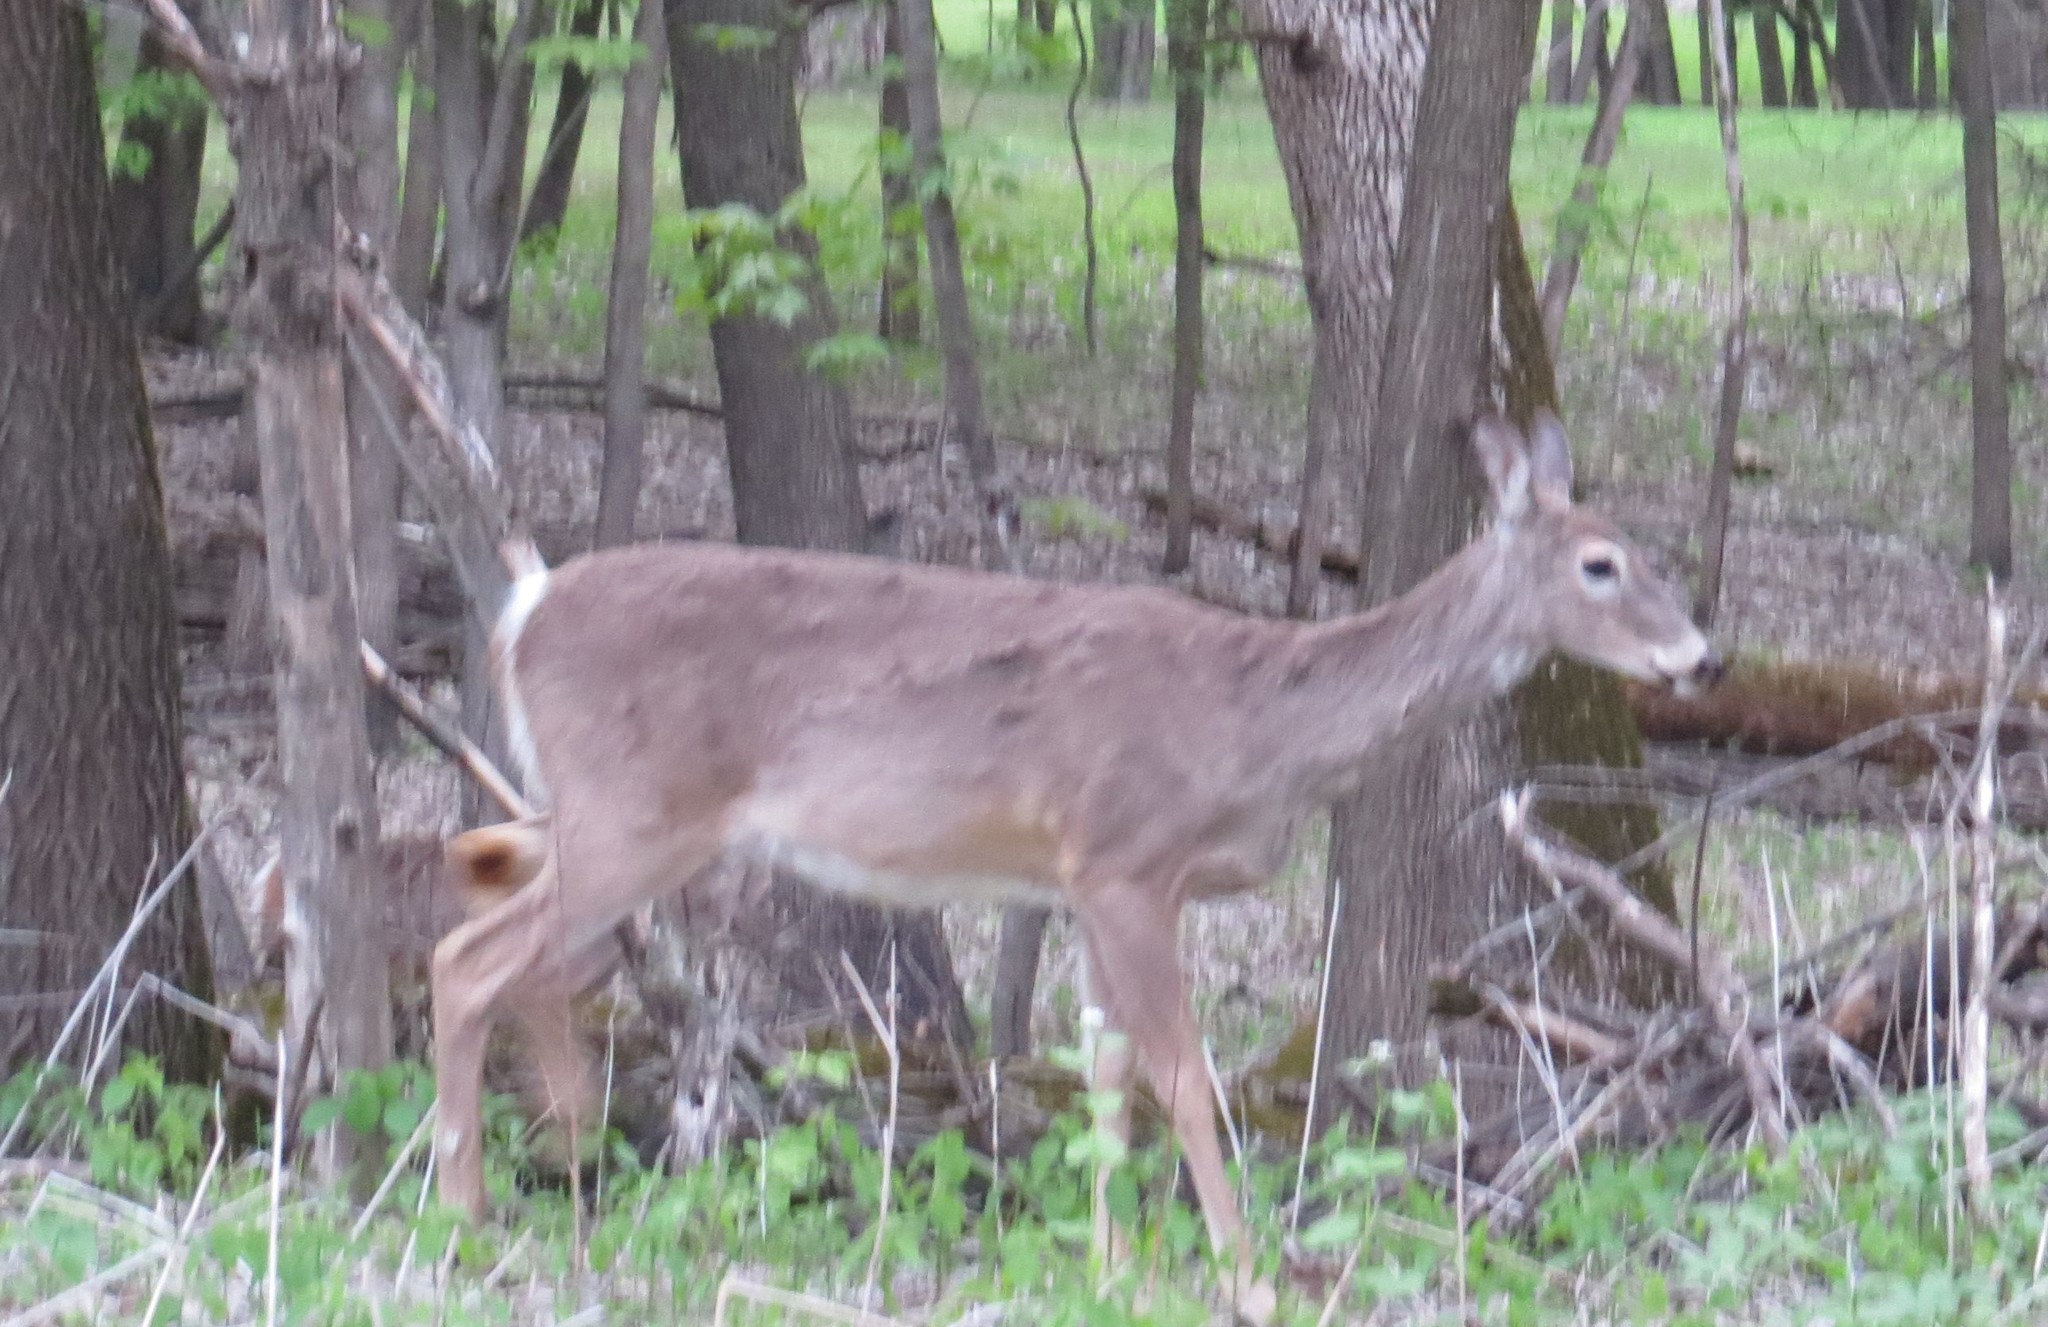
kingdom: Animalia
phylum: Chordata
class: Mammalia
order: Artiodactyla
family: Cervidae
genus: Odocoileus
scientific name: Odocoileus virginianus
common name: White-tailed deer
